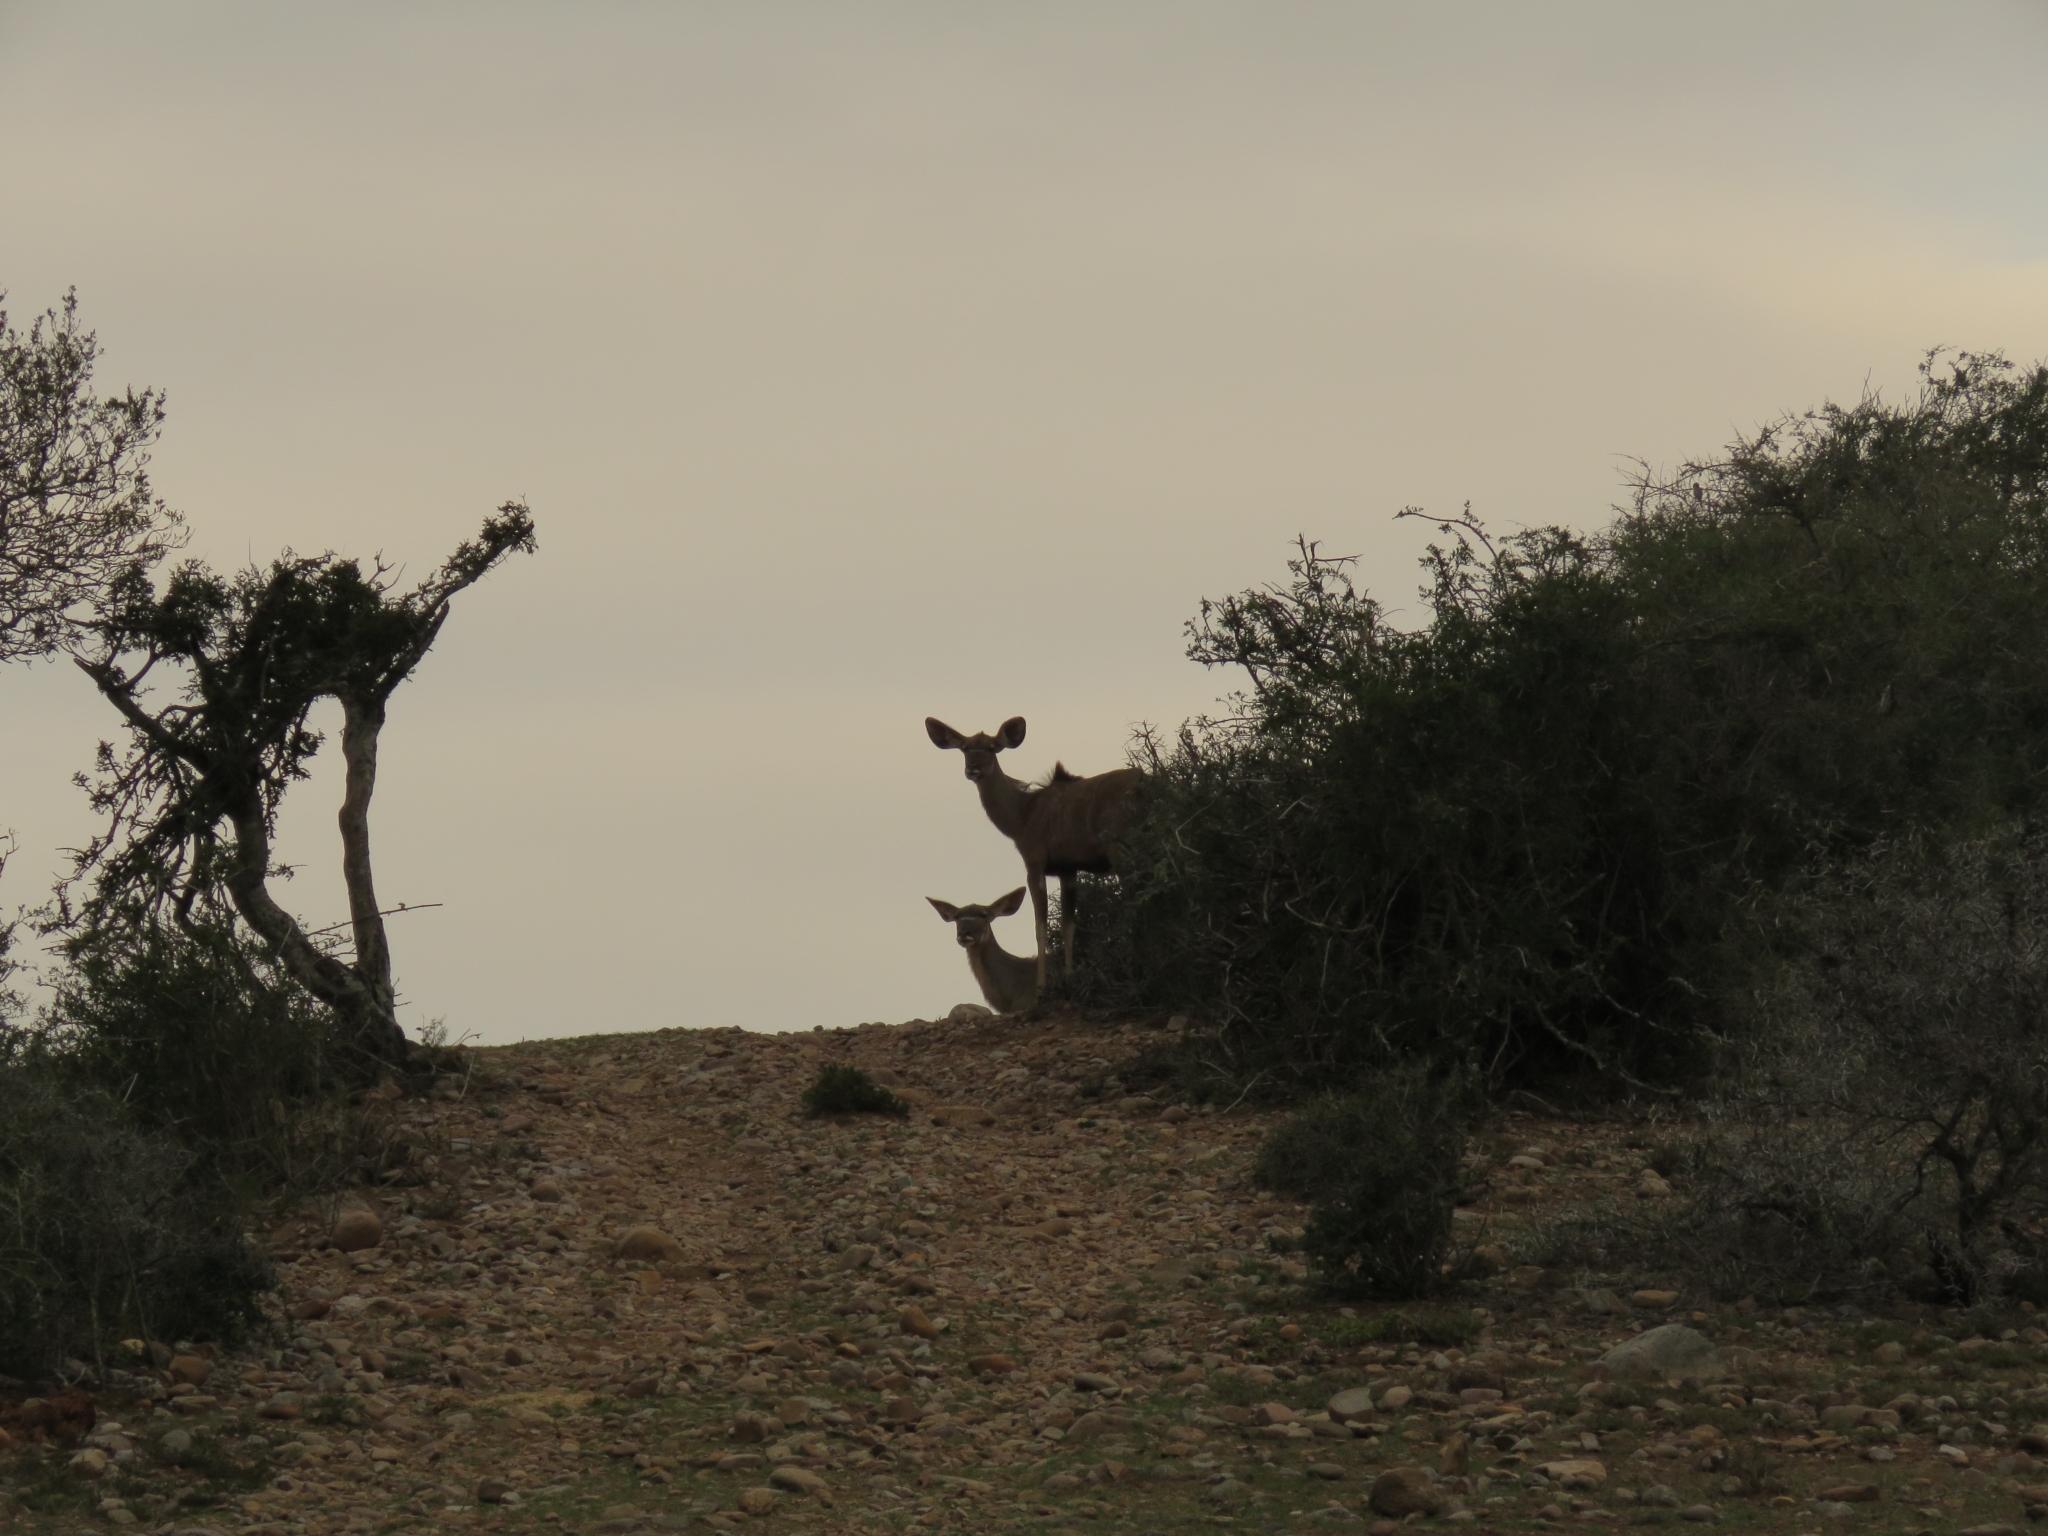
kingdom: Animalia
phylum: Chordata
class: Mammalia
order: Artiodactyla
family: Bovidae
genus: Tragelaphus
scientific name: Tragelaphus strepsiceros
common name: Greater kudu
